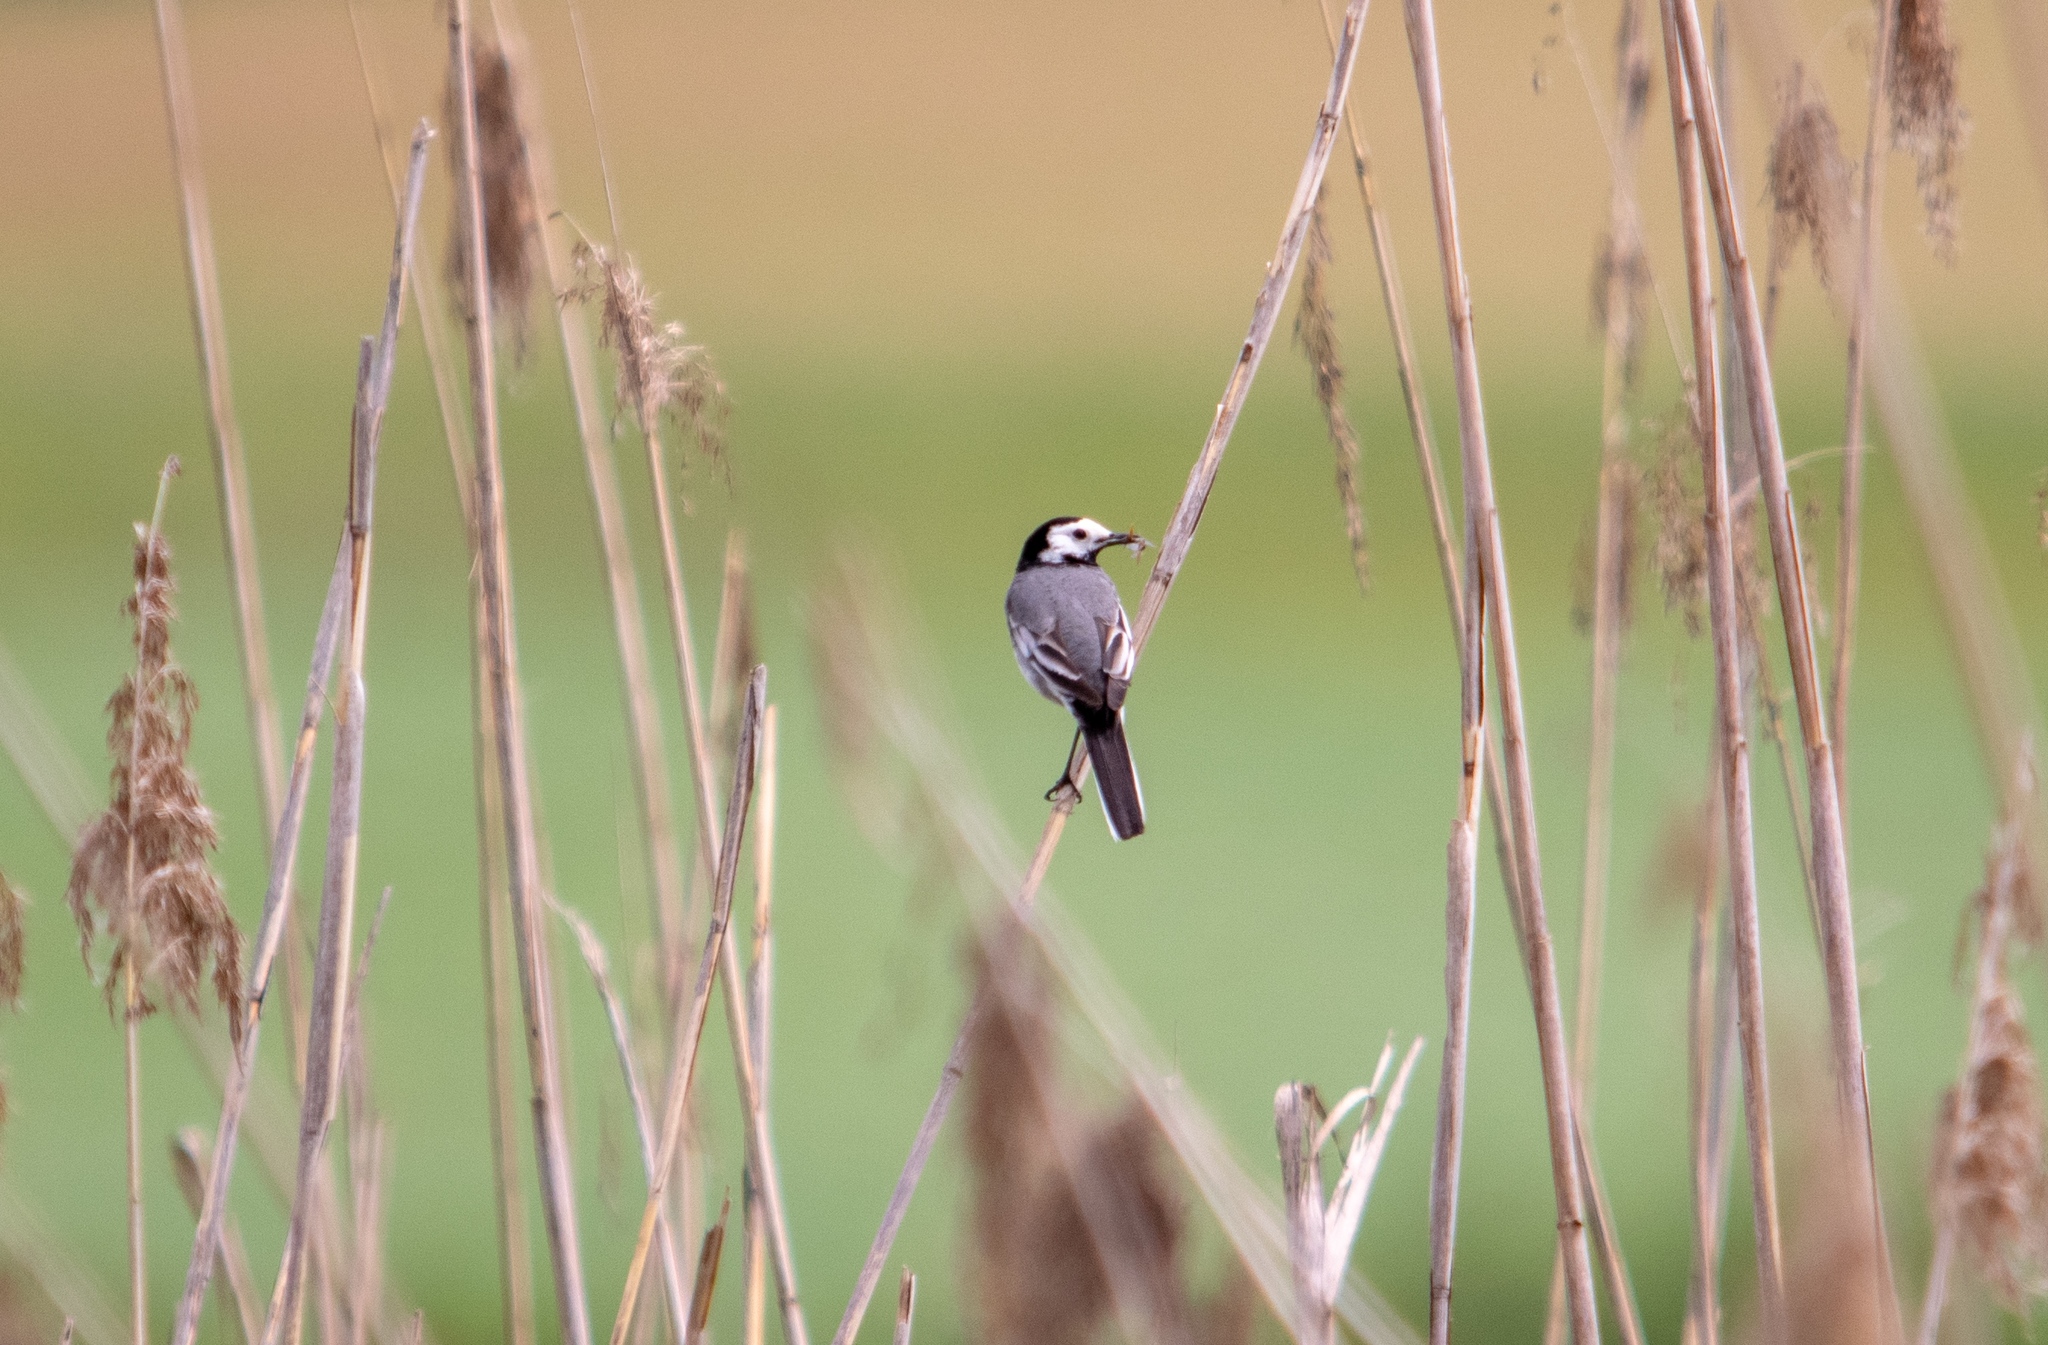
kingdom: Animalia
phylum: Chordata
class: Aves
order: Passeriformes
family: Motacillidae
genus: Motacilla
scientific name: Motacilla alba
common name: White wagtail
